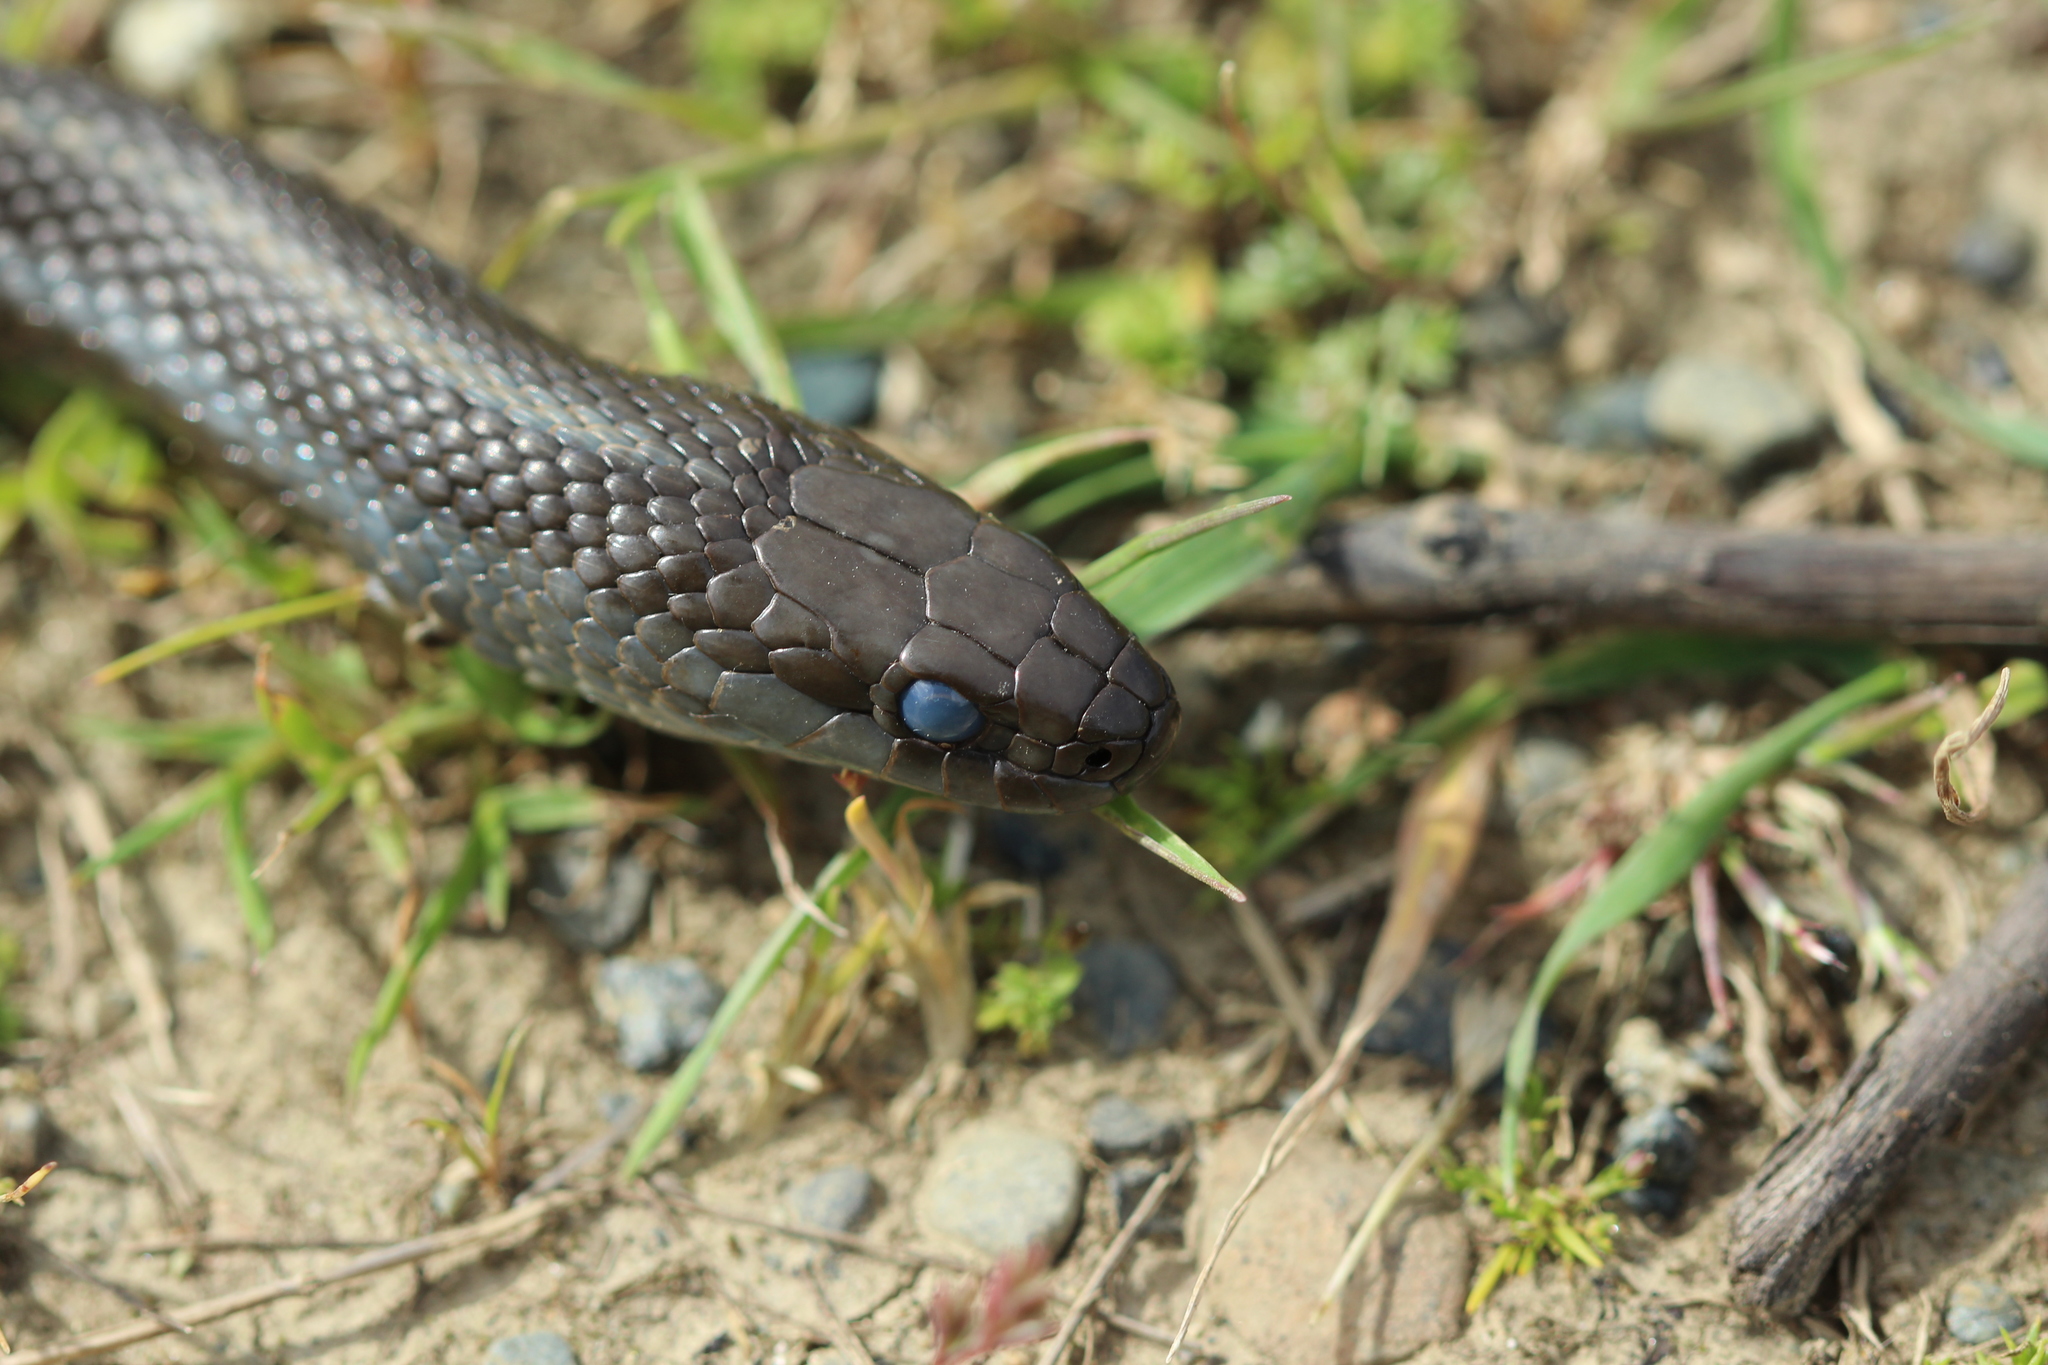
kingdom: Animalia
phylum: Chordata
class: Squamata
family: Colubridae
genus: Thamnophis
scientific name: Thamnophis ordinoides
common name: Northwestern garter snake
